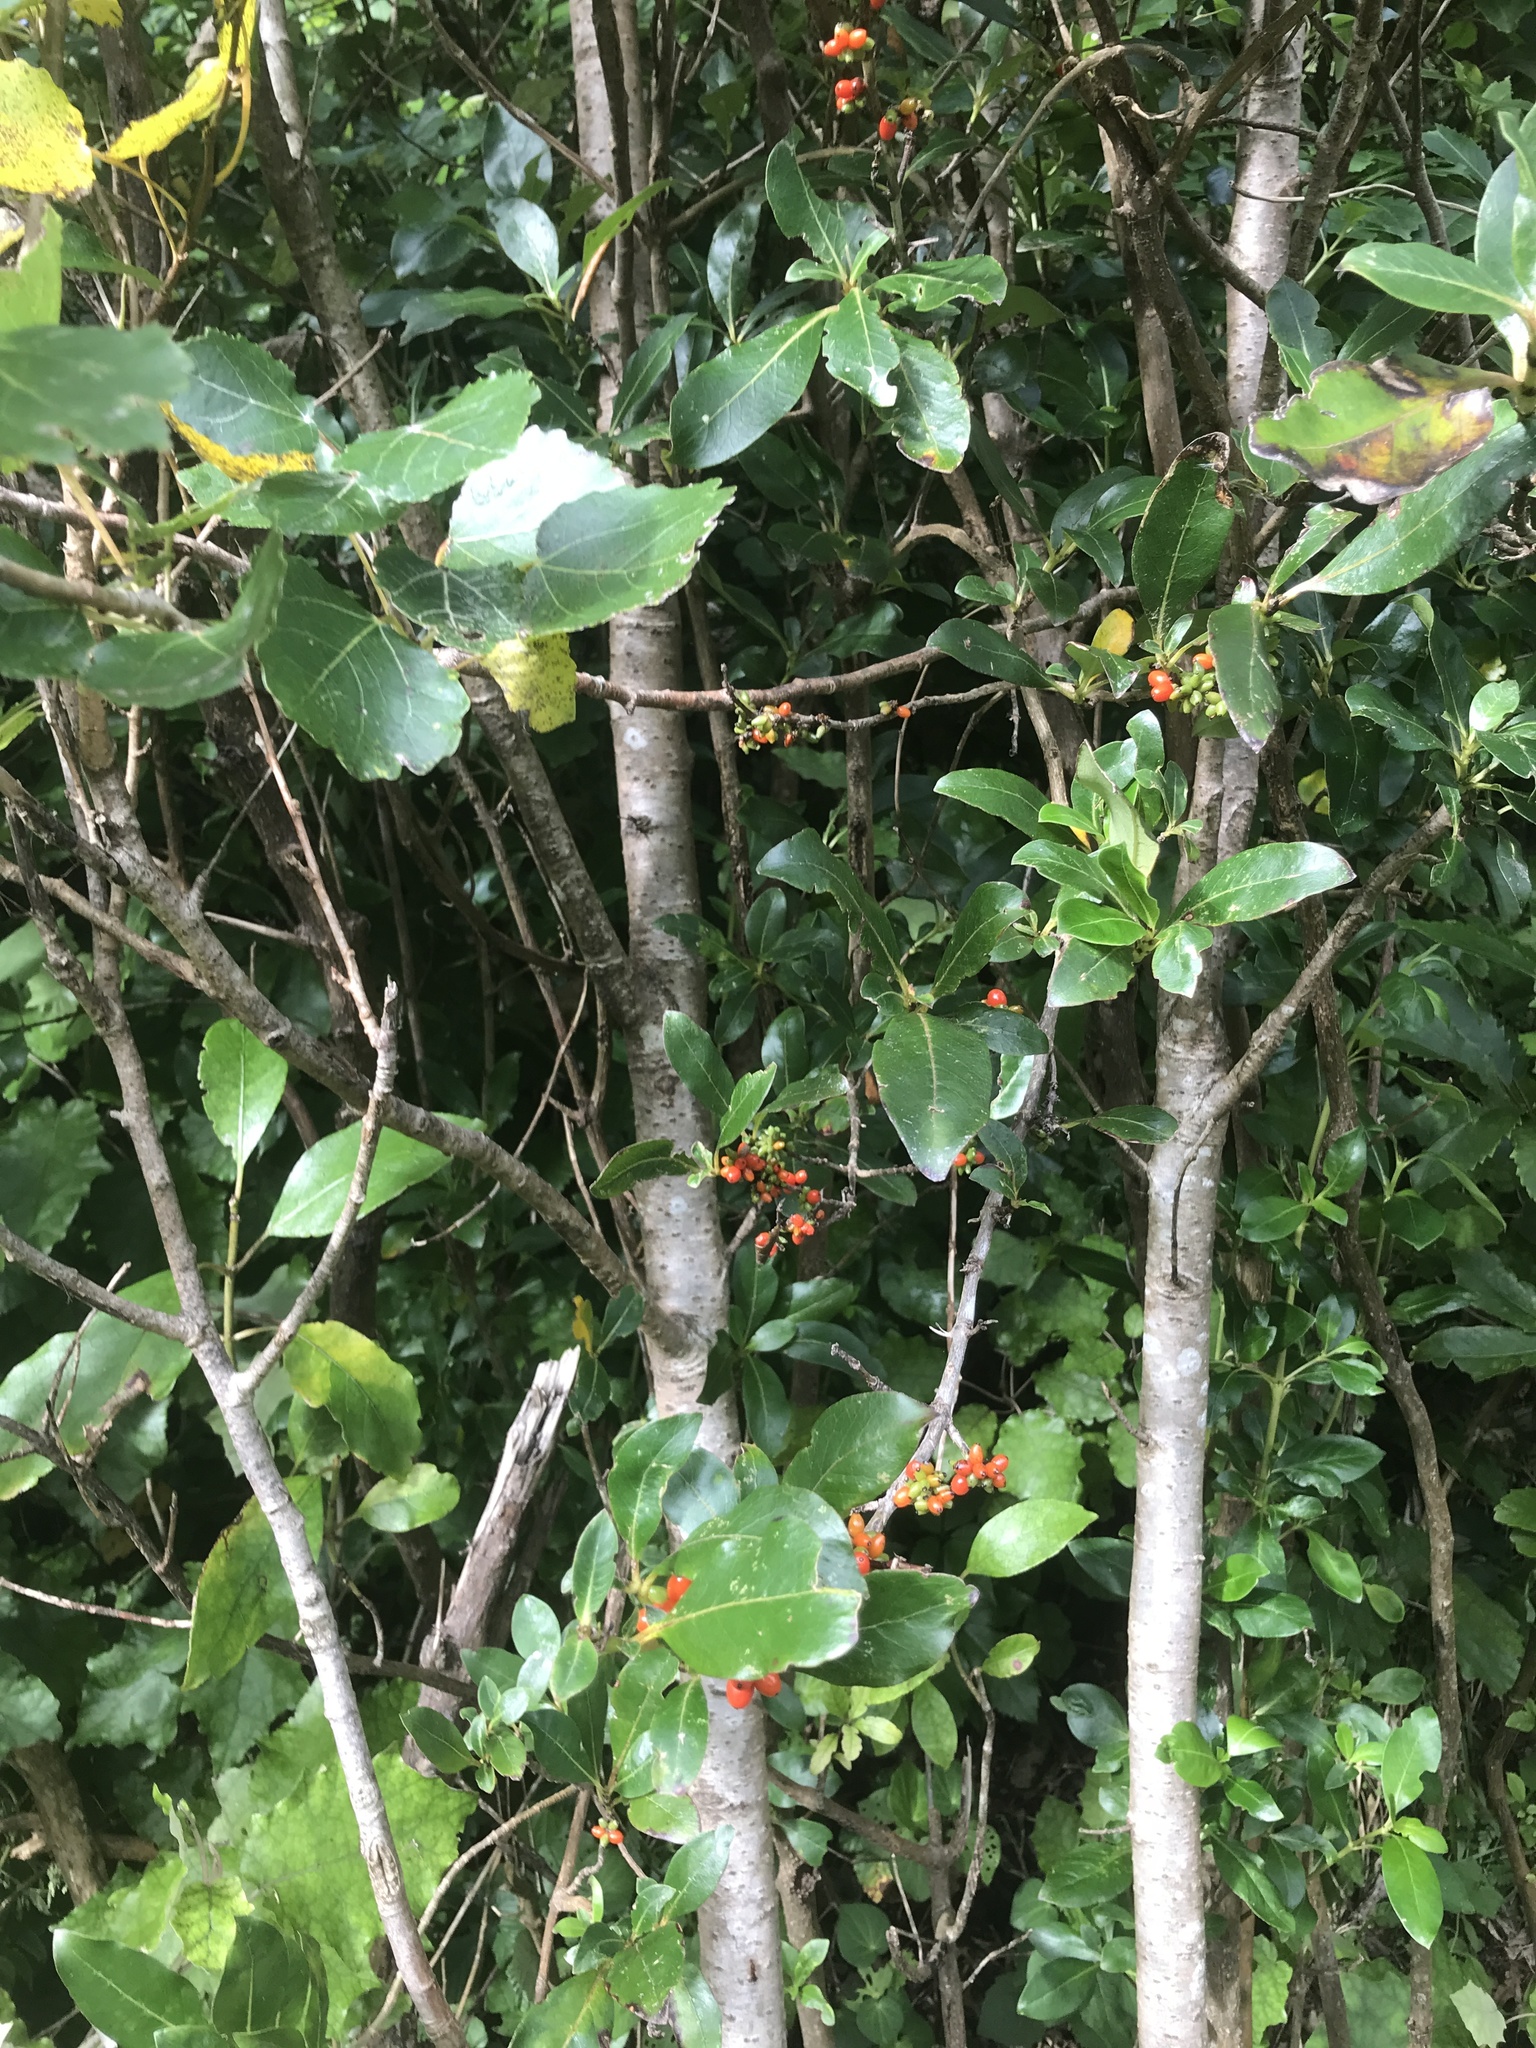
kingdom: Plantae
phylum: Tracheophyta
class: Magnoliopsida
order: Gentianales
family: Rubiaceae
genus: Coprosma
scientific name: Coprosma robusta
